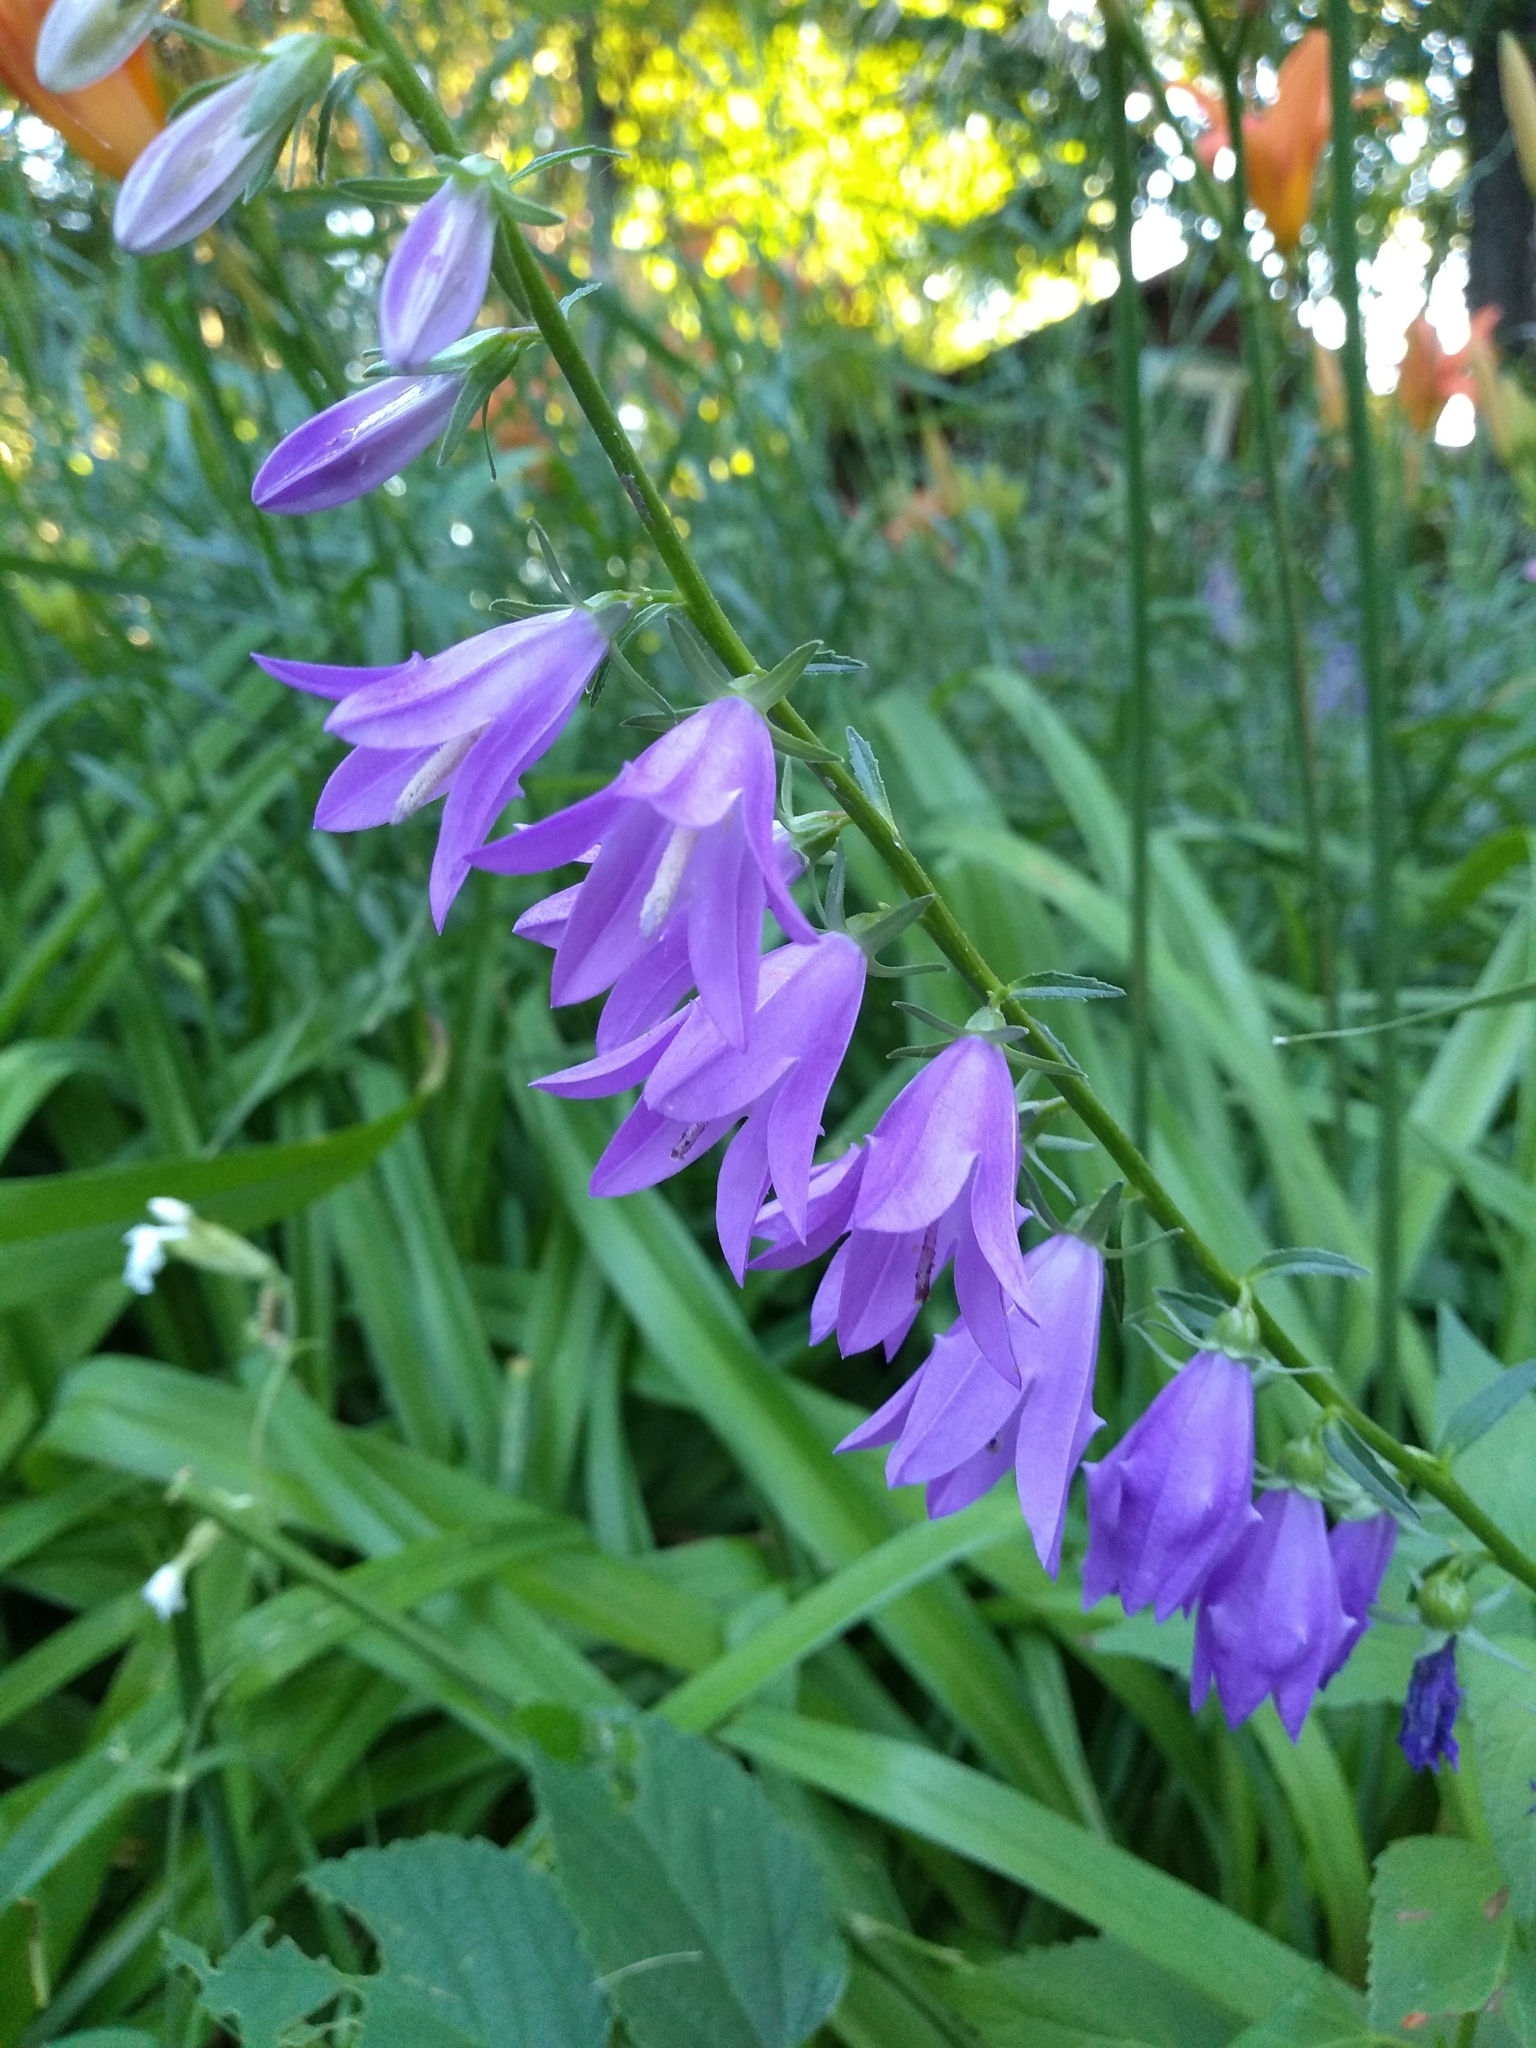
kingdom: Plantae
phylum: Tracheophyta
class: Magnoliopsida
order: Asterales
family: Campanulaceae
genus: Campanula
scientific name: Campanula rapunculoides
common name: Creeping bellflower
